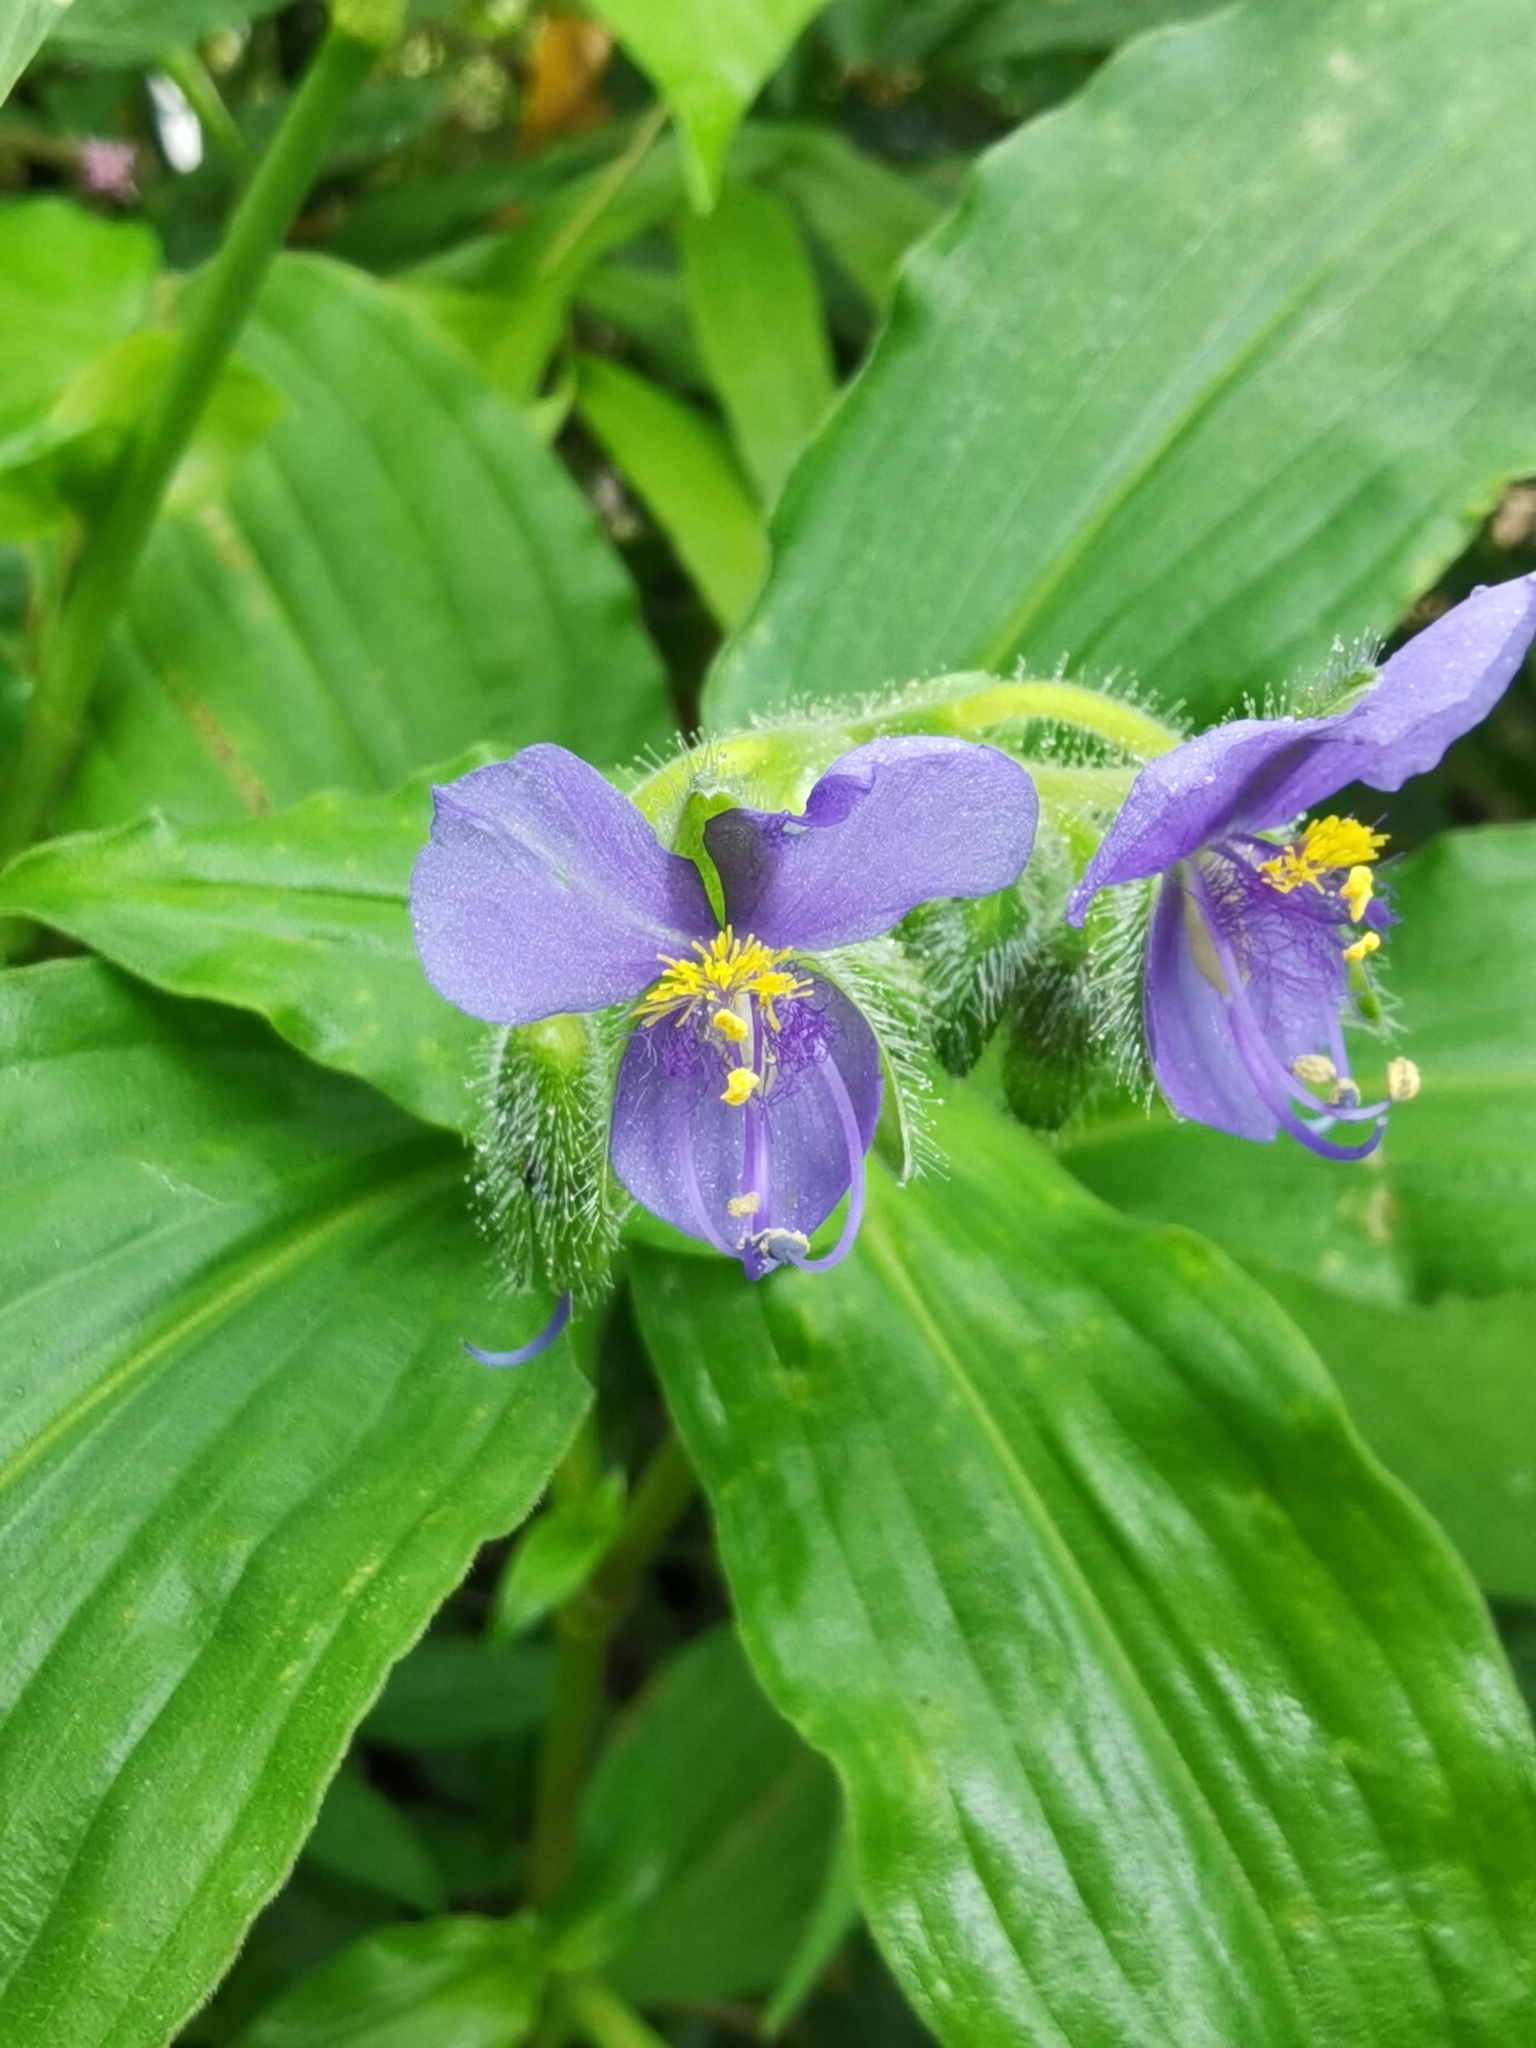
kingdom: Plantae
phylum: Tracheophyta
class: Liliopsida
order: Commelinales
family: Commelinaceae
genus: Tinantia
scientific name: Tinantia erecta
